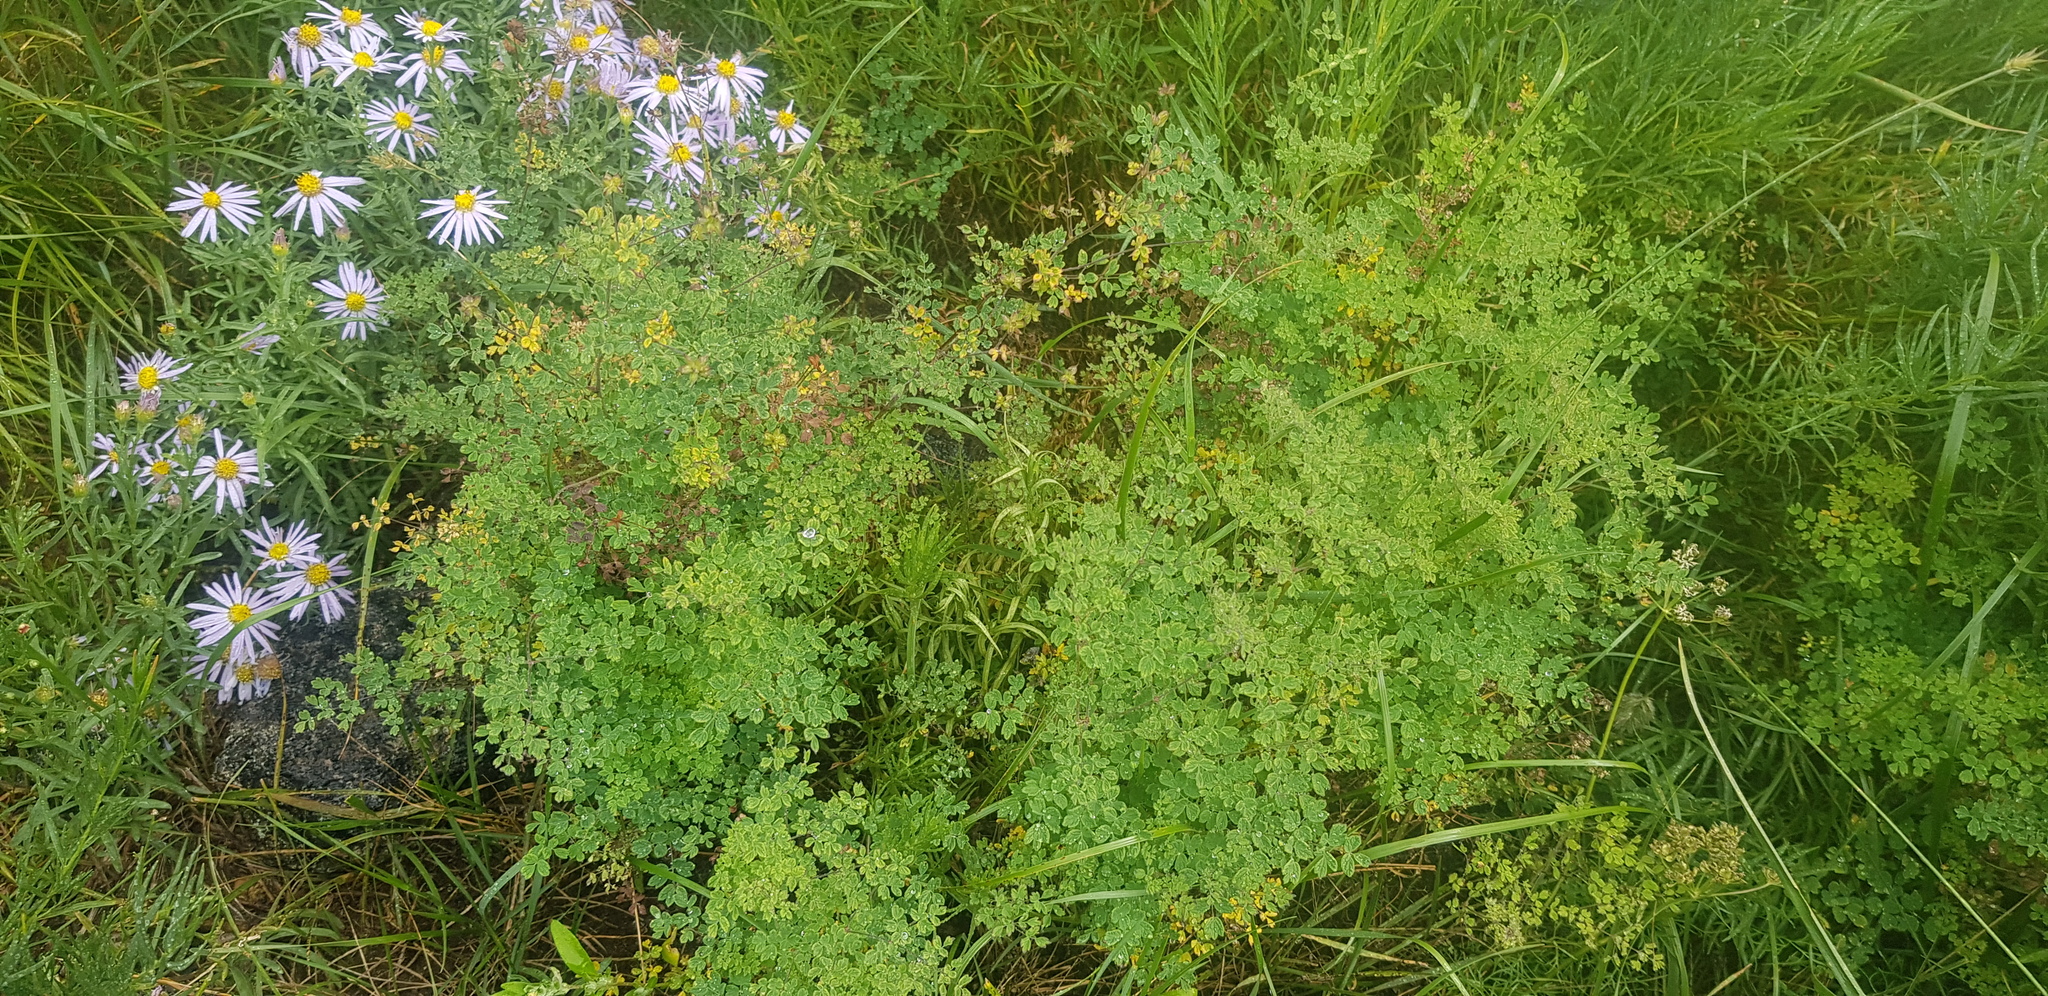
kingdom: Plantae
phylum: Tracheophyta
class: Magnoliopsida
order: Ranunculales
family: Ranunculaceae
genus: Thalictrum
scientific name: Thalictrum foetidum
